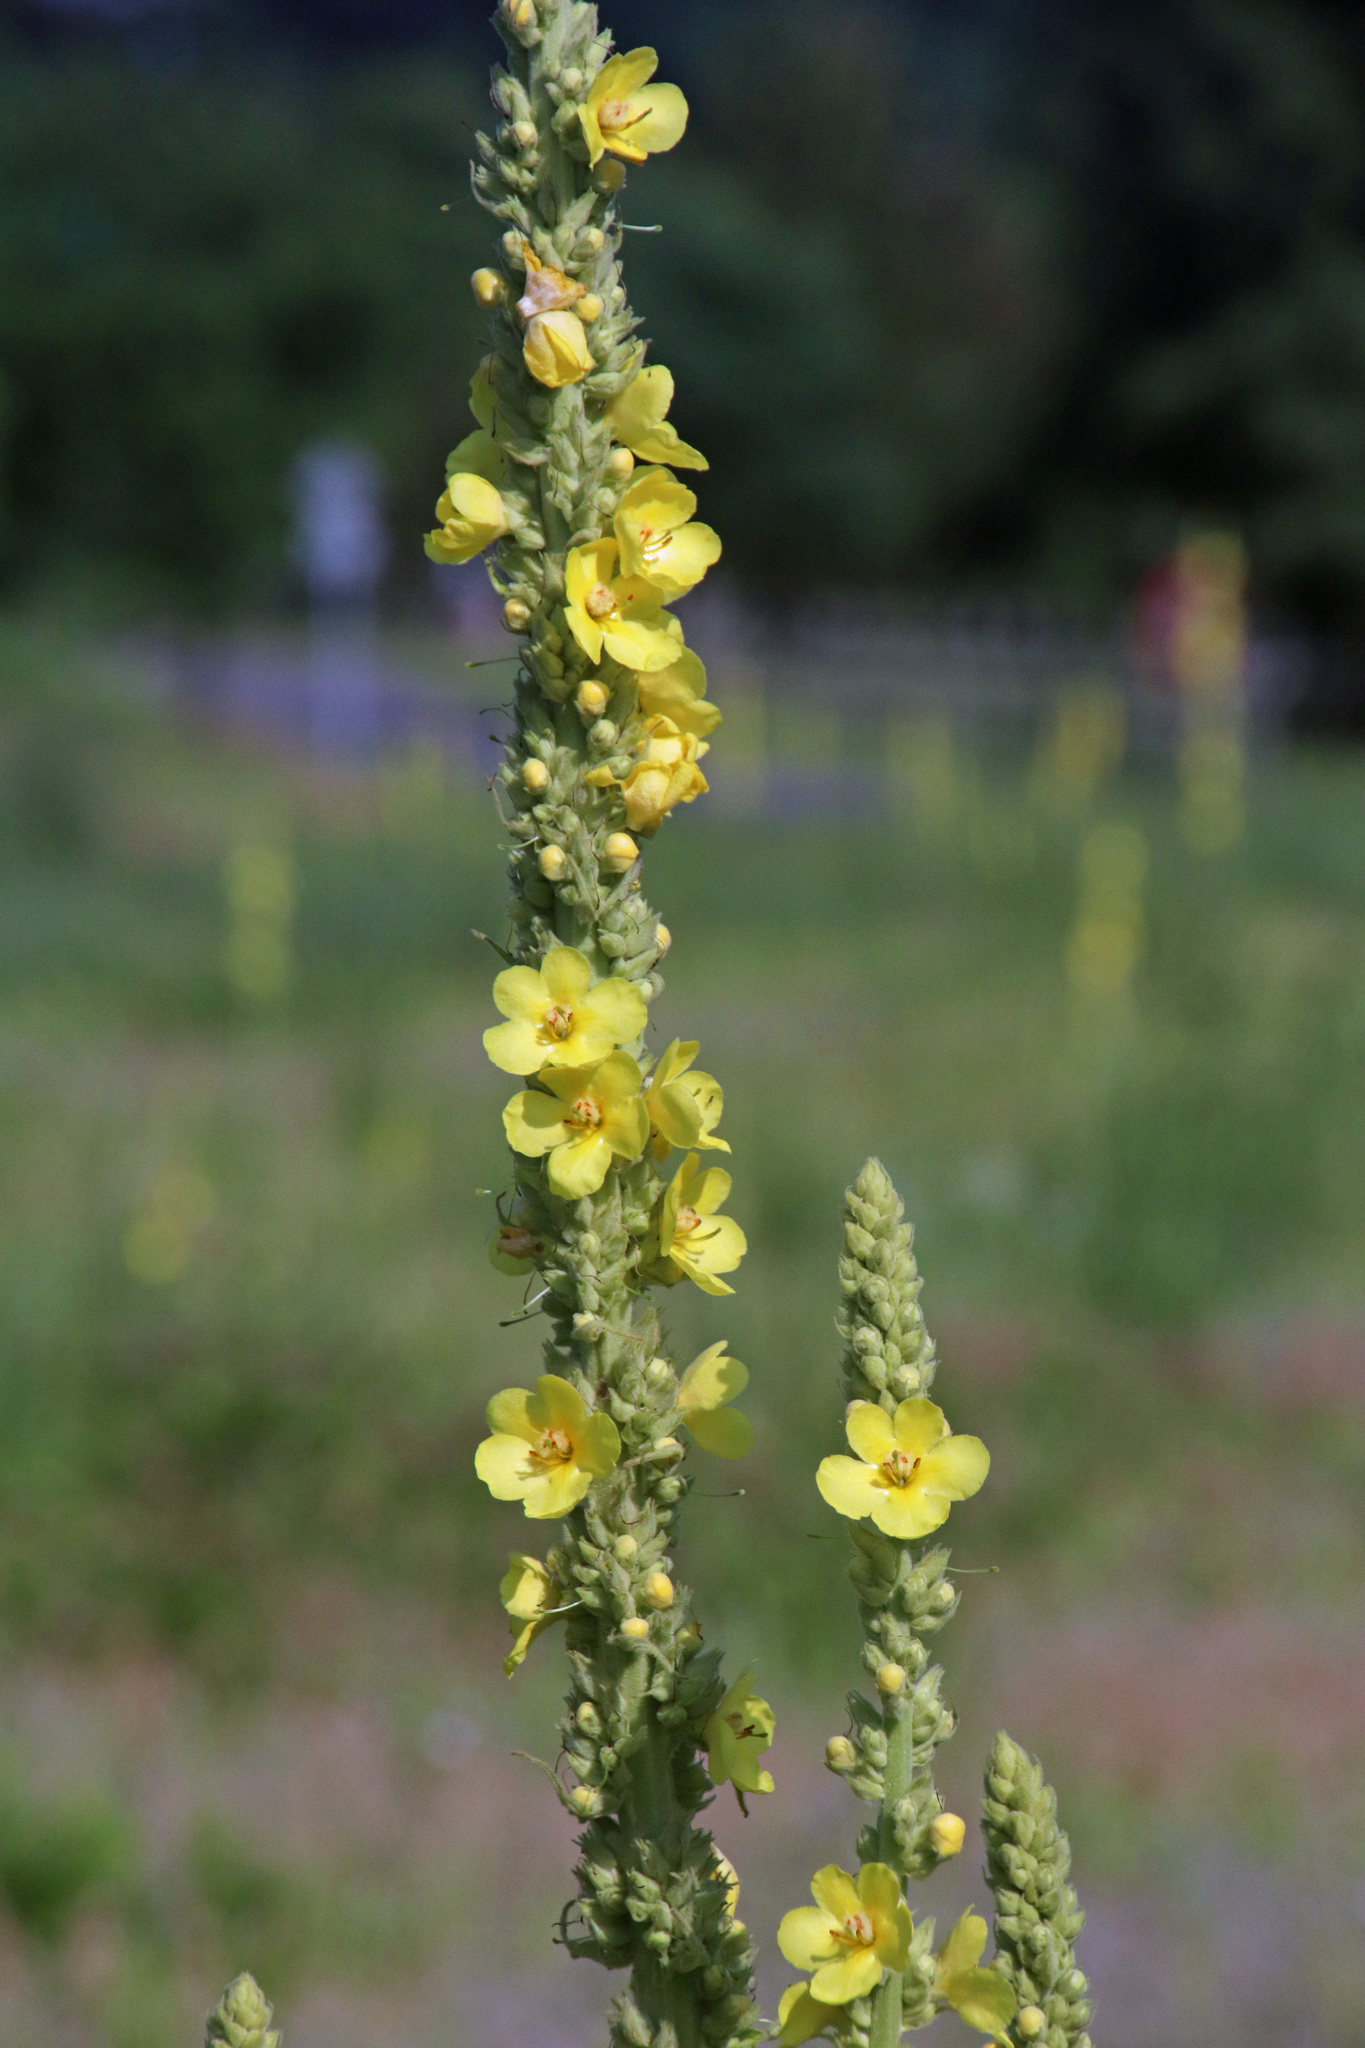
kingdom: Plantae
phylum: Tracheophyta
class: Magnoliopsida
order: Lamiales
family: Scrophulariaceae
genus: Verbascum
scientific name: Verbascum phlomoides
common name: Orange mullein
